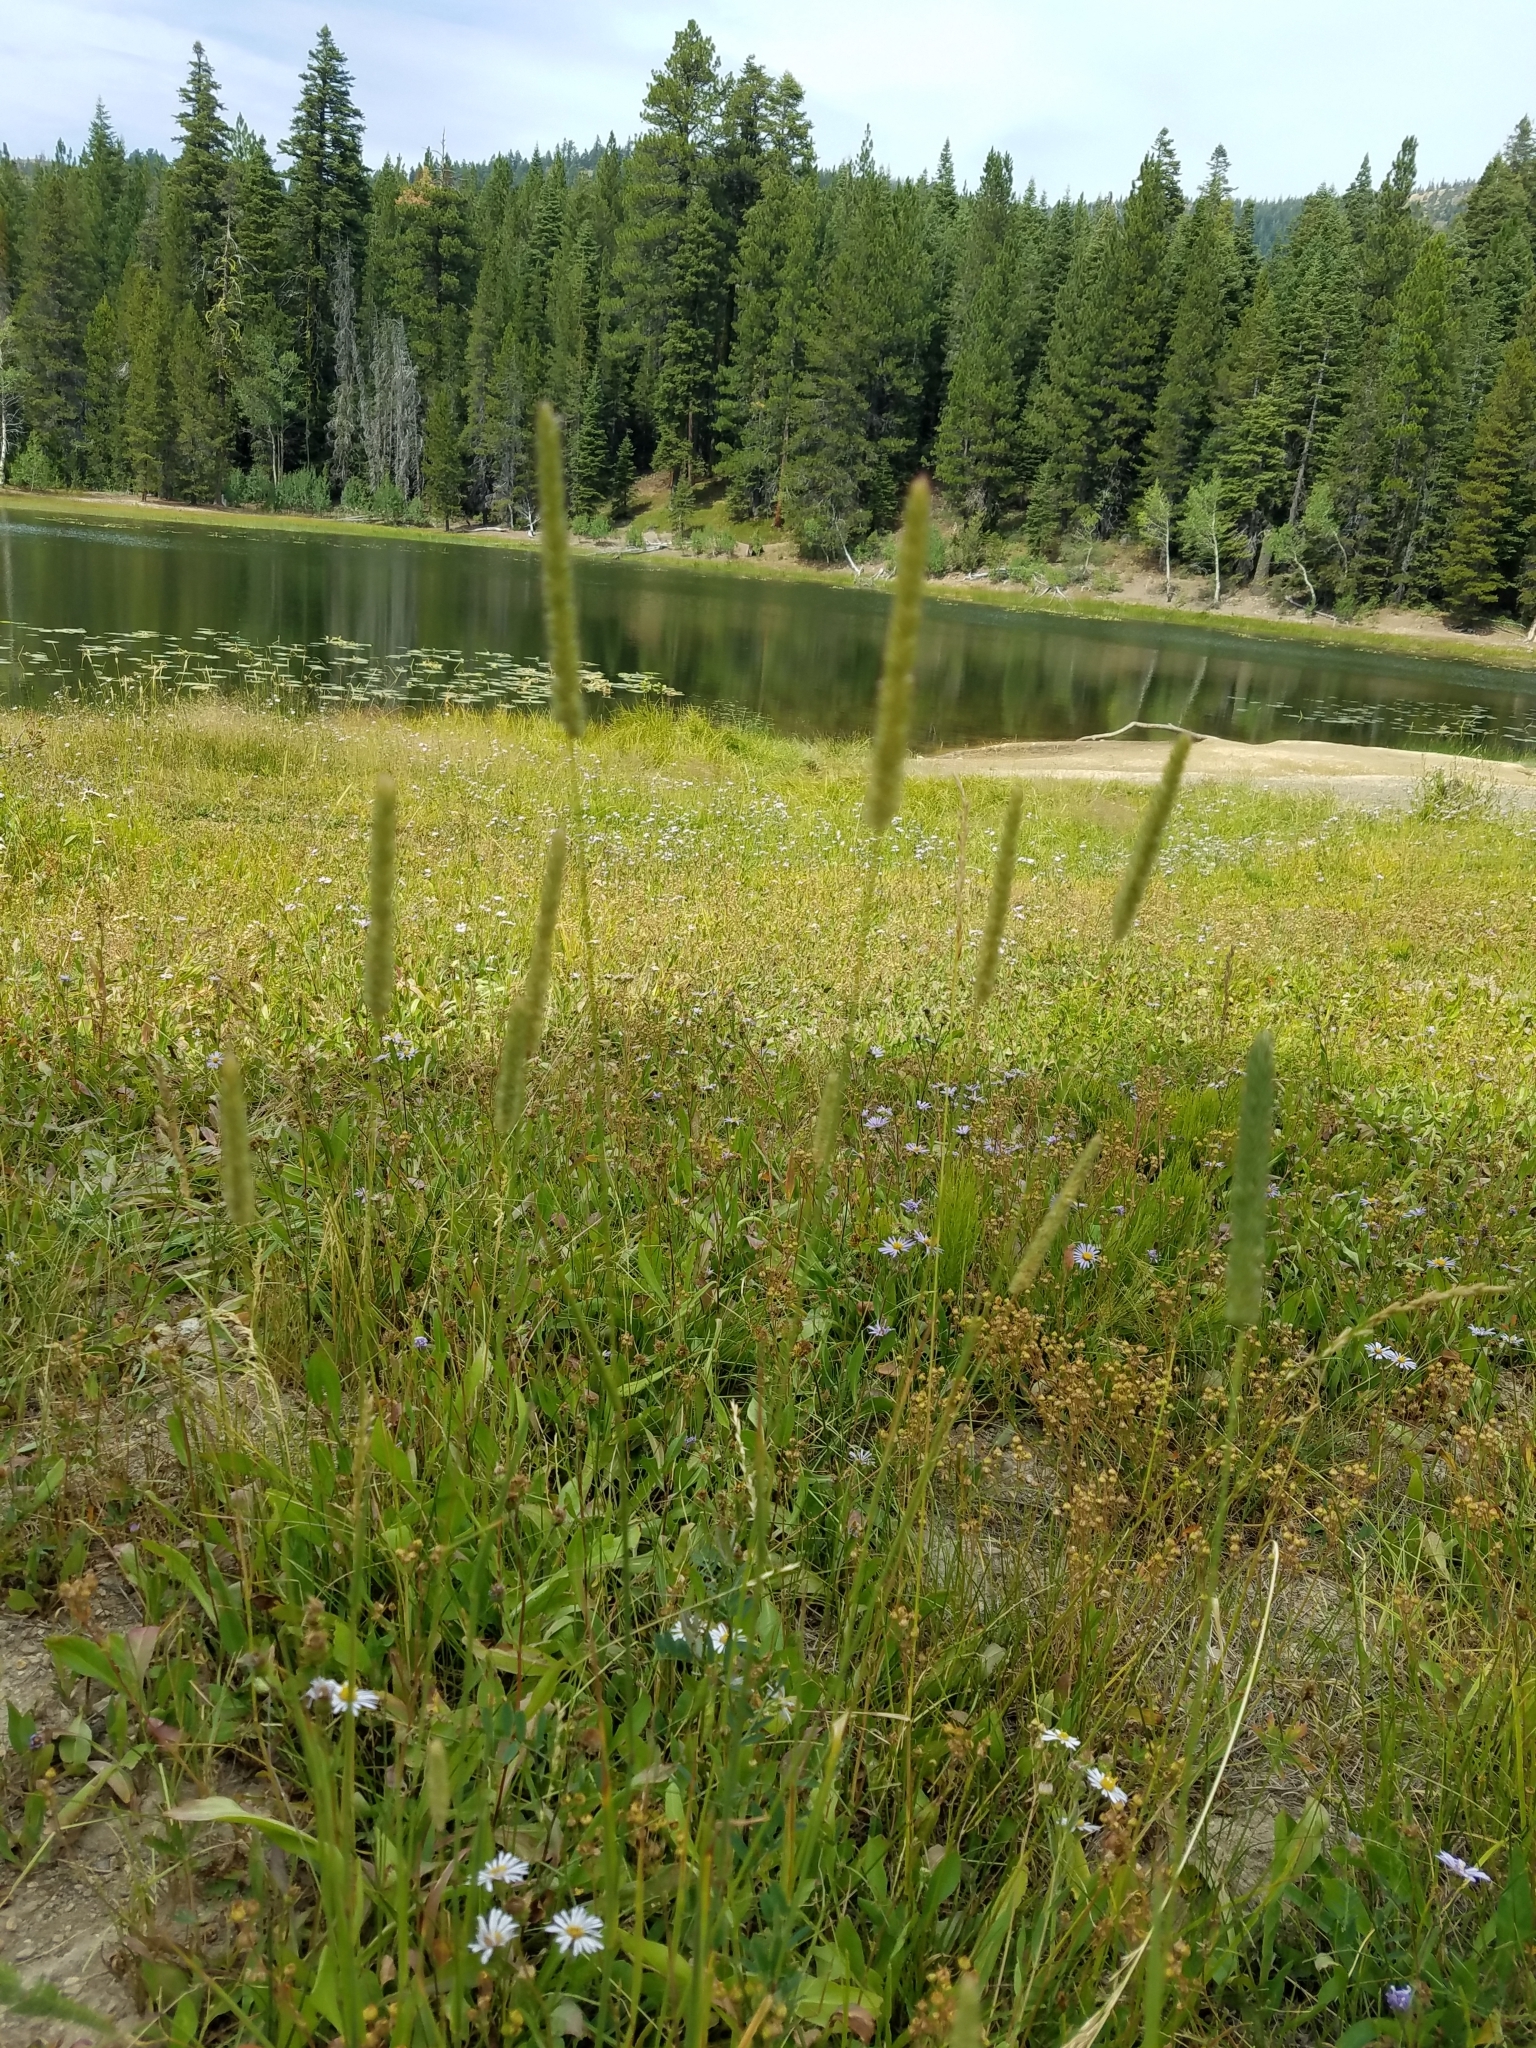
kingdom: Plantae
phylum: Tracheophyta
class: Liliopsida
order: Poales
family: Poaceae
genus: Phleum
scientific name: Phleum pratense
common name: Timothy grass
